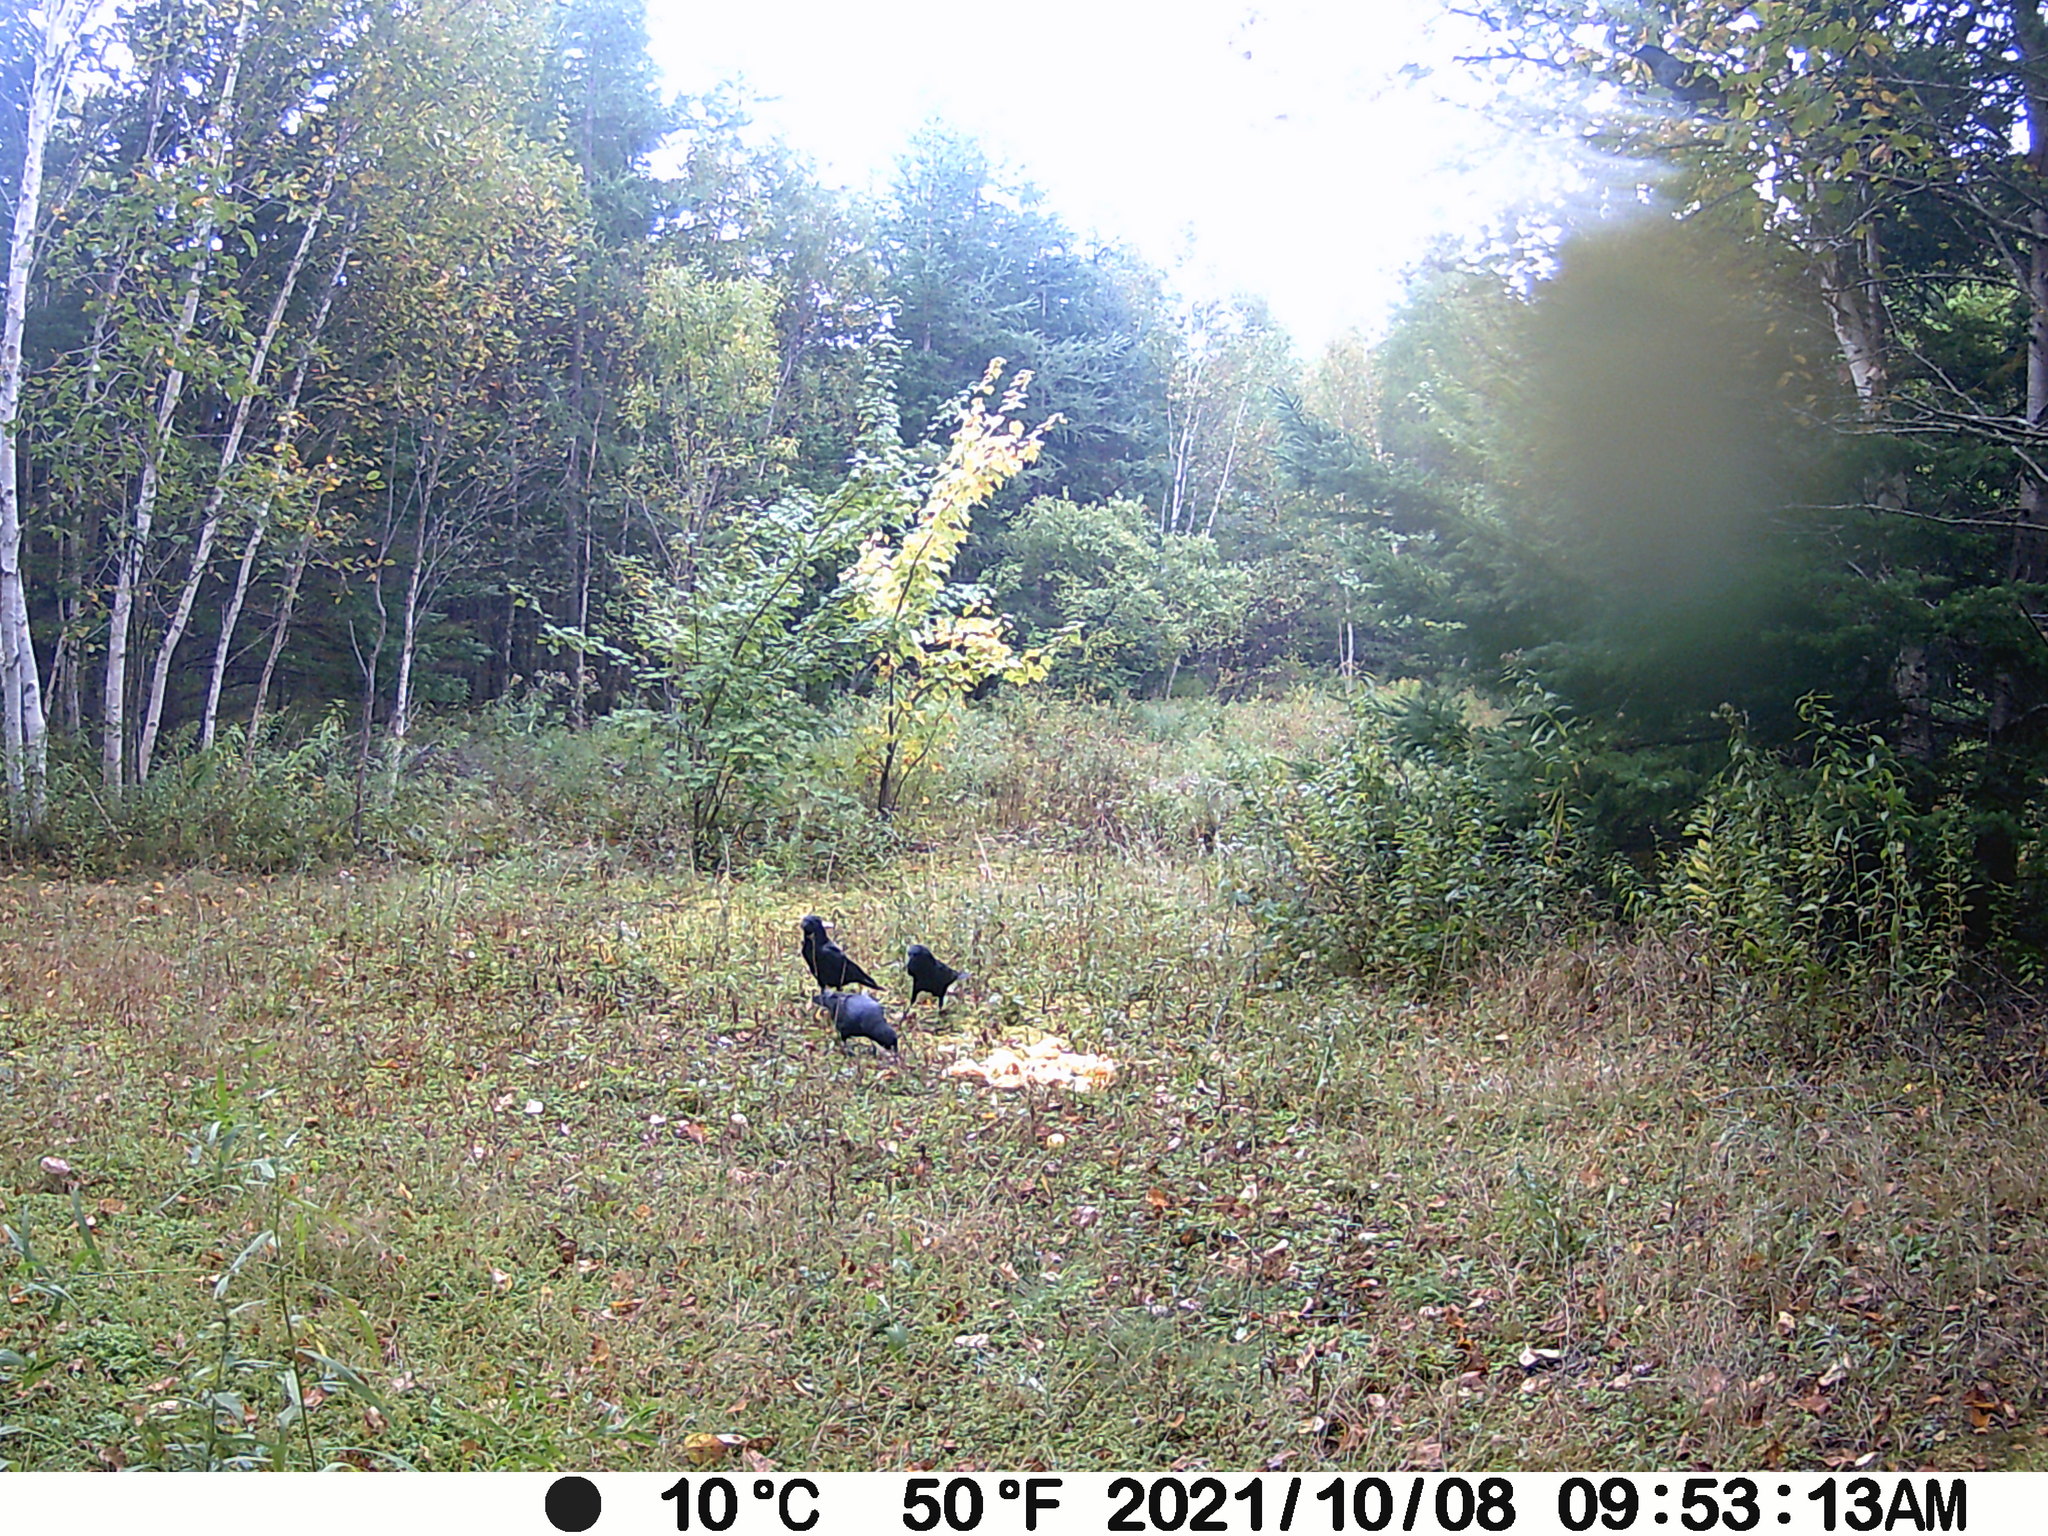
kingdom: Animalia
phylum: Chordata
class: Aves
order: Passeriformes
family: Corvidae
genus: Corvus
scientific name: Corvus brachyrhynchos
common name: American crow
